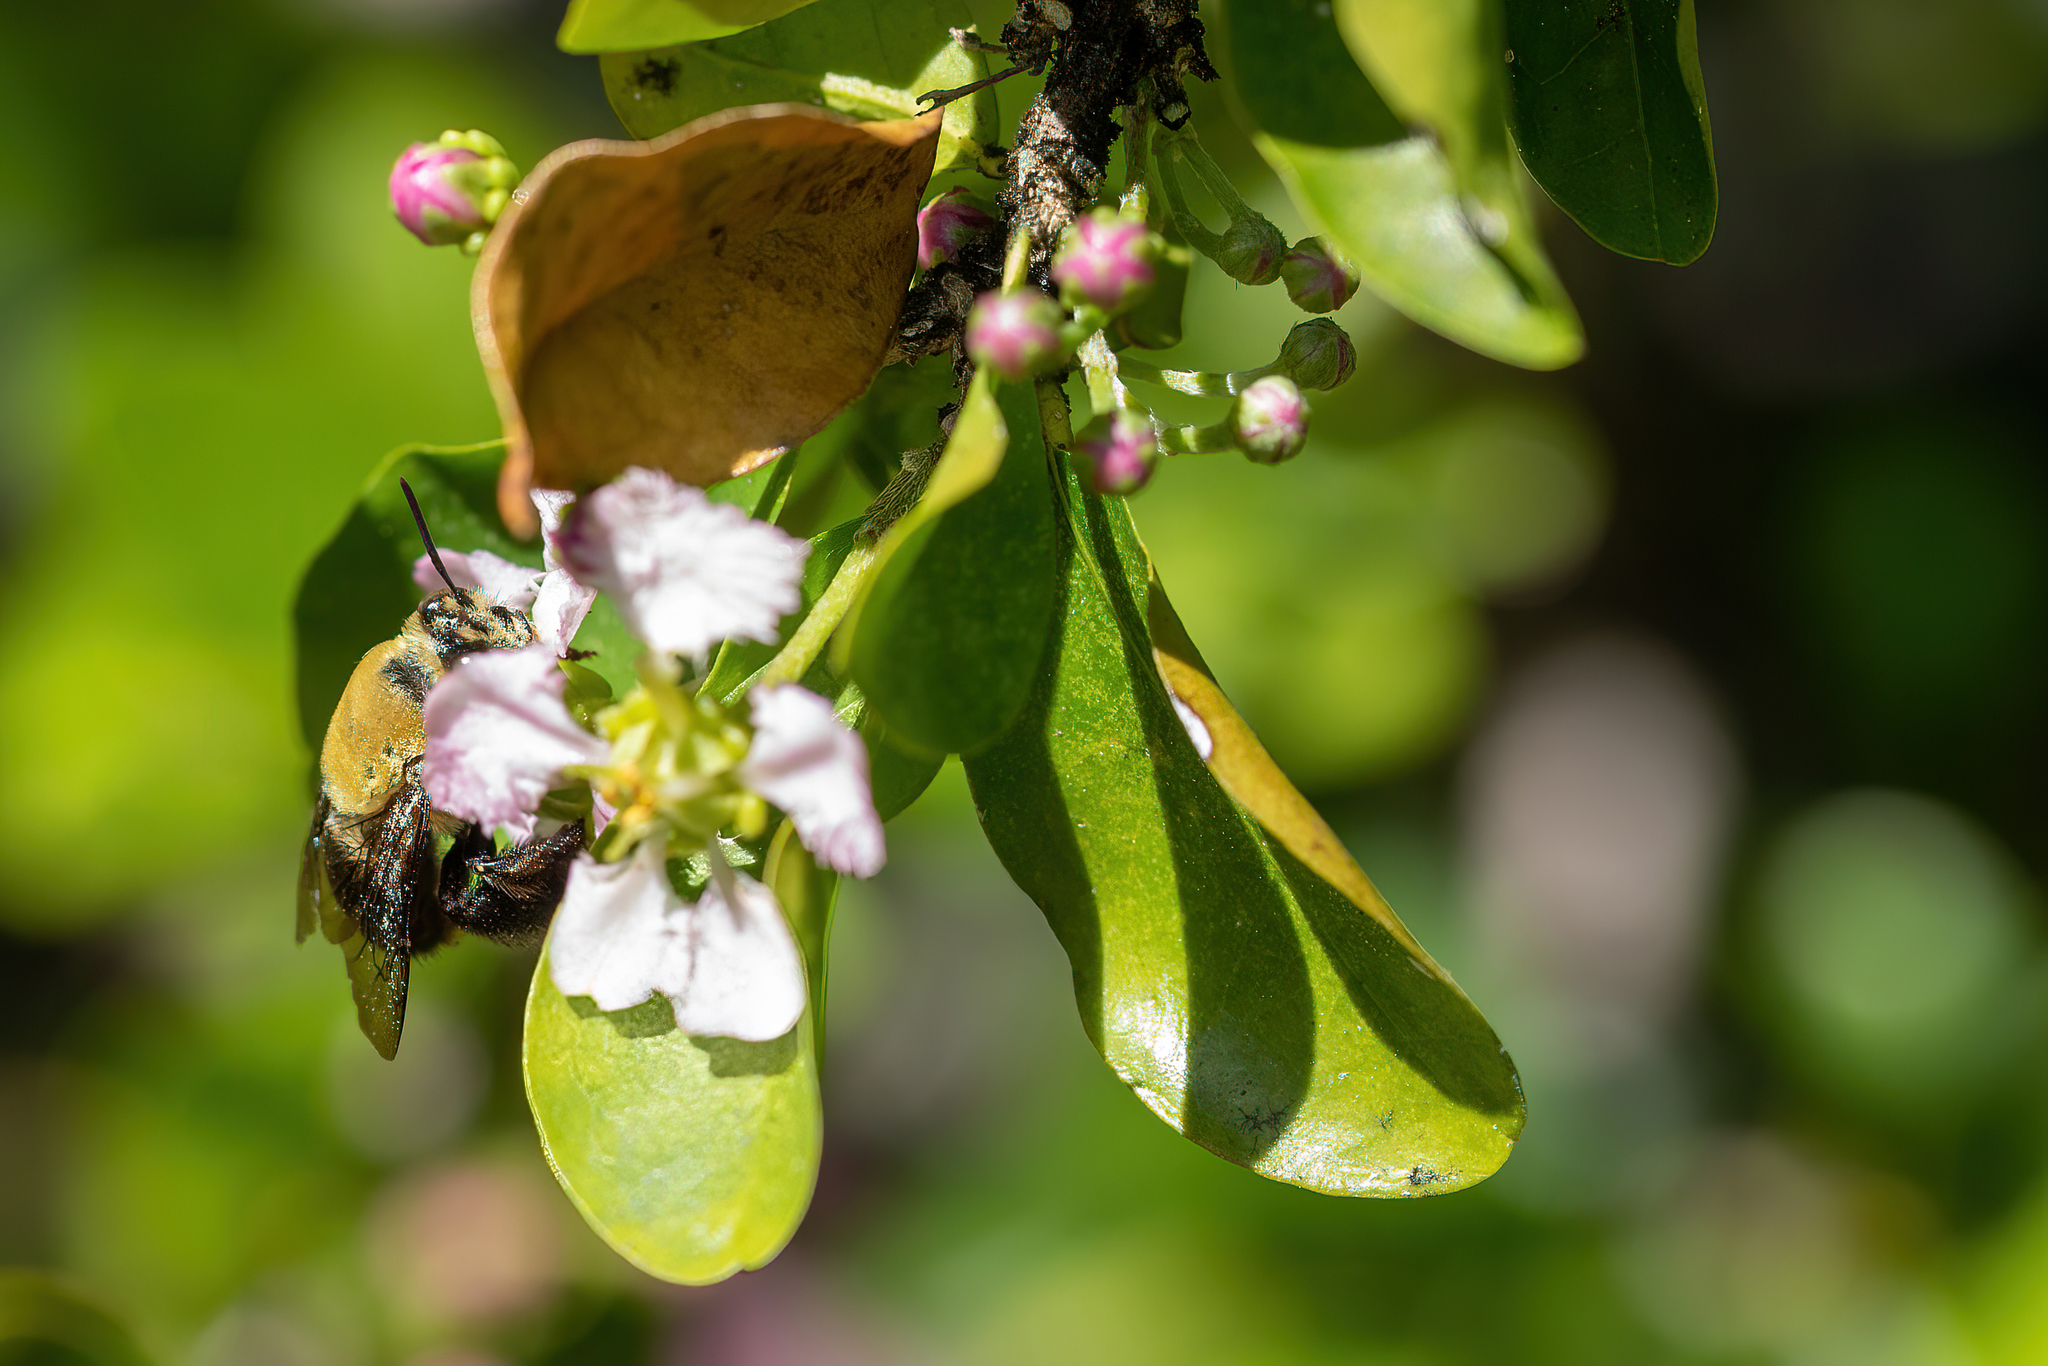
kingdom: Animalia
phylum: Arthropoda
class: Insecta
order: Hymenoptera
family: Apidae
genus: Centris
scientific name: Centris nitida
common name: Oil-collecting bee
